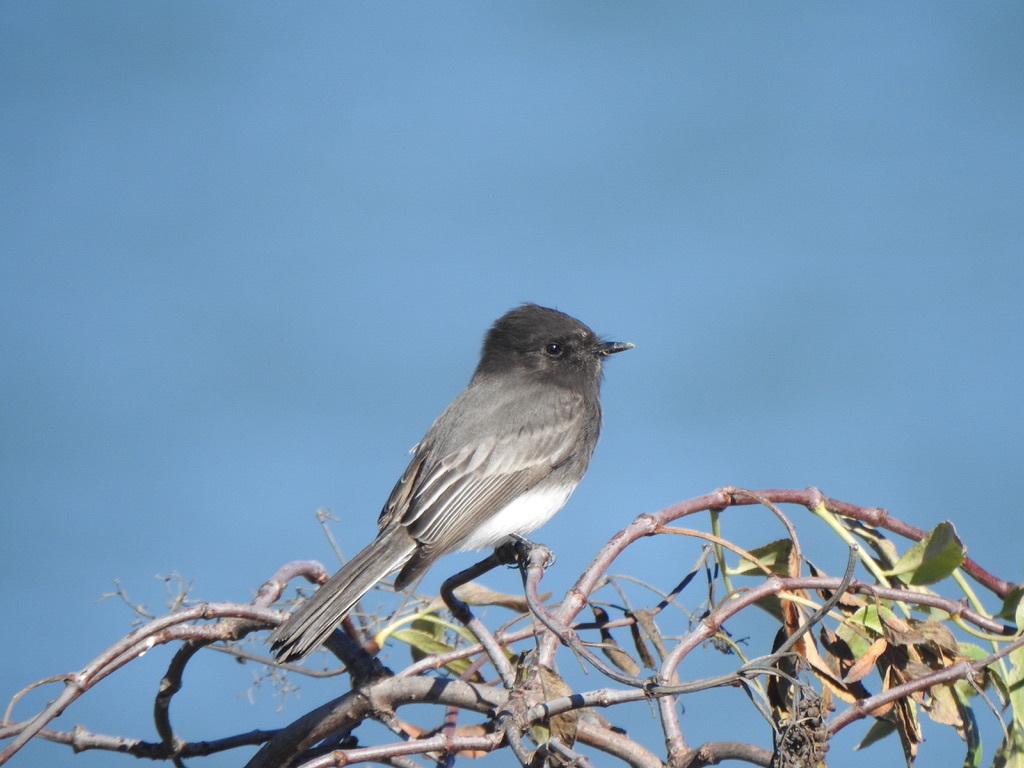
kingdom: Animalia
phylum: Chordata
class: Aves
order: Passeriformes
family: Tyrannidae
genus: Sayornis
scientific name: Sayornis nigricans
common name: Black phoebe
